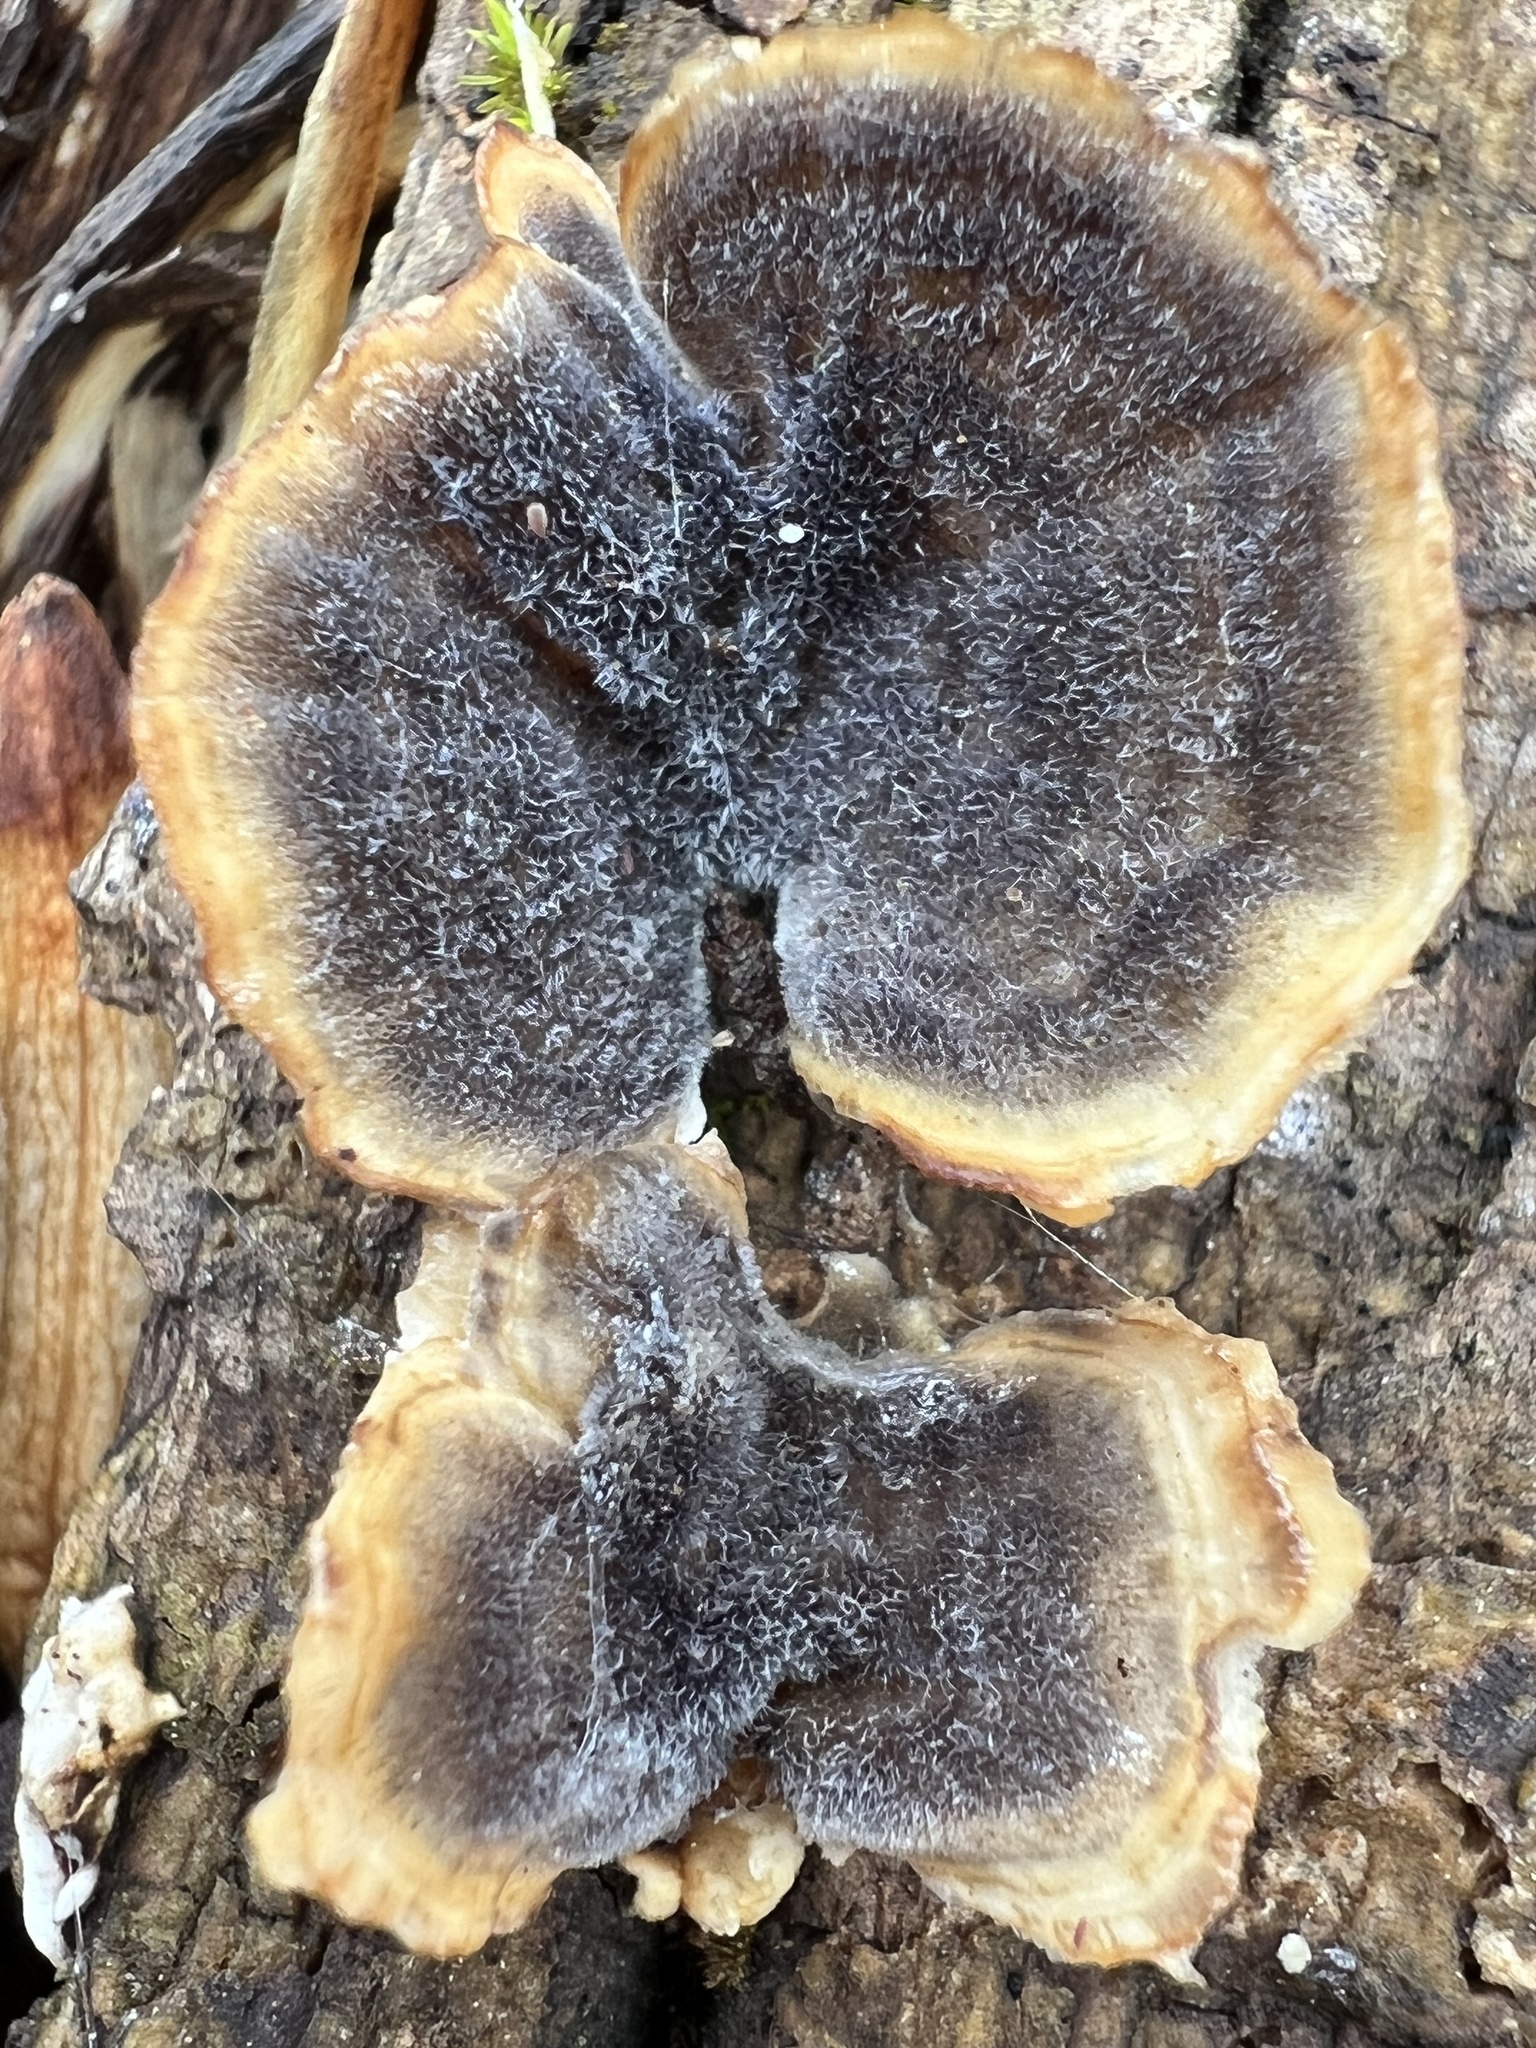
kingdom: Fungi
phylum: Basidiomycota
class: Agaricomycetes
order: Polyporales
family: Polyporaceae
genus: Trametes
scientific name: Trametes versicolor
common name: Turkeytail
